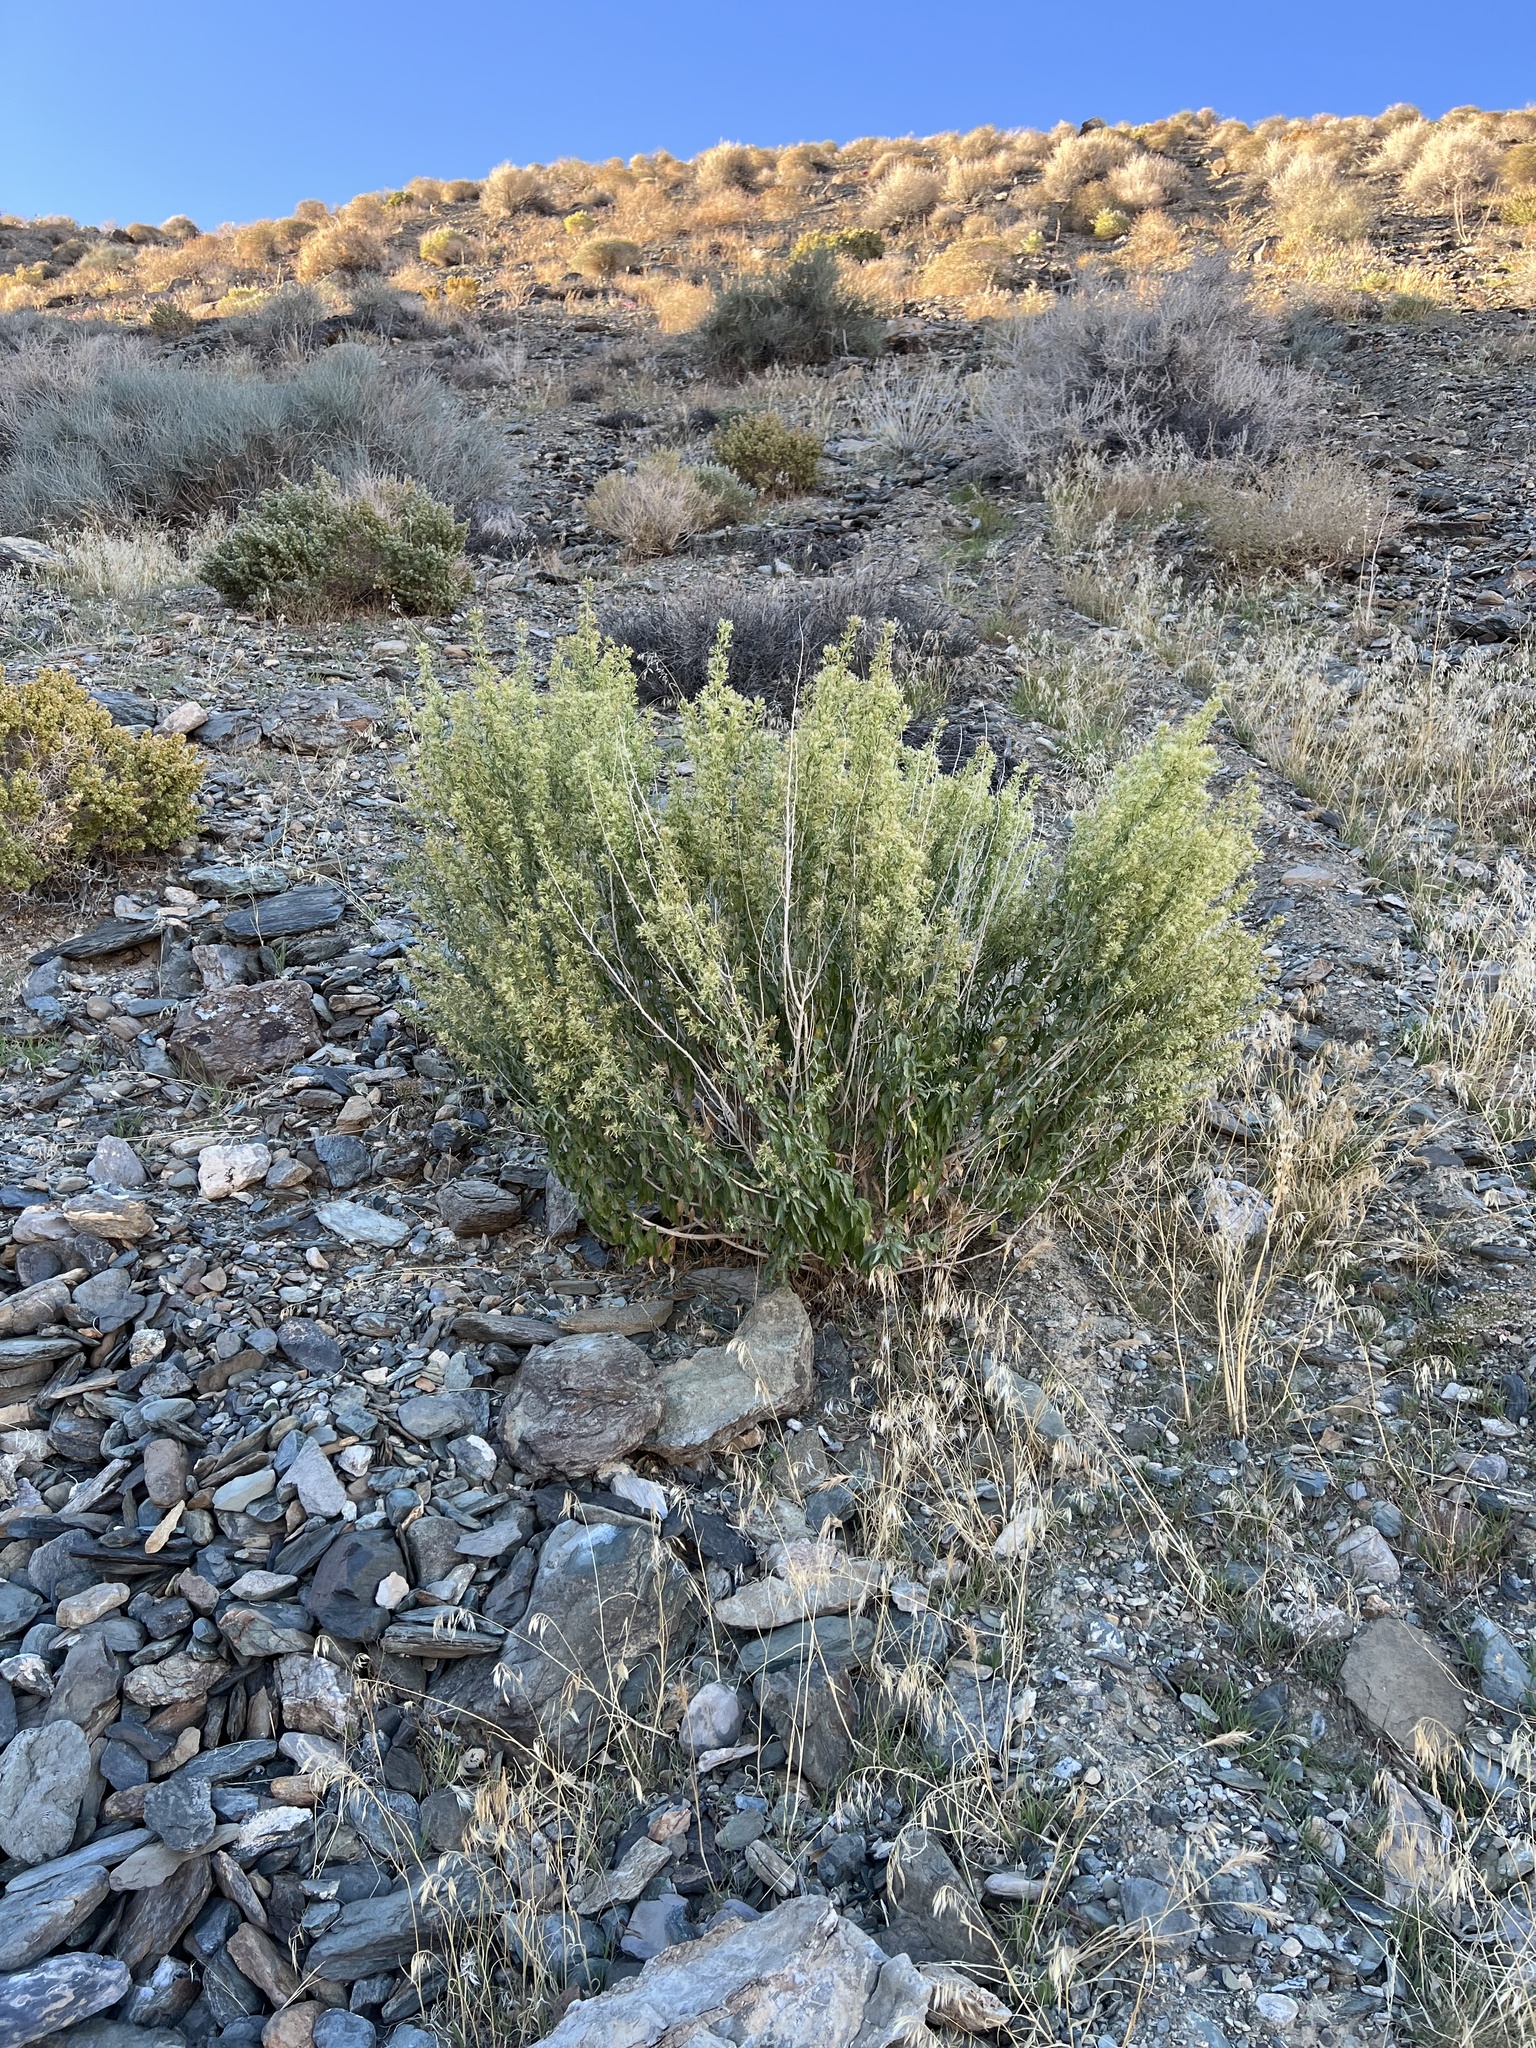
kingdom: Plantae
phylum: Tracheophyta
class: Magnoliopsida
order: Asterales
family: Asteraceae
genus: Brickellia
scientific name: Brickellia longifolia
